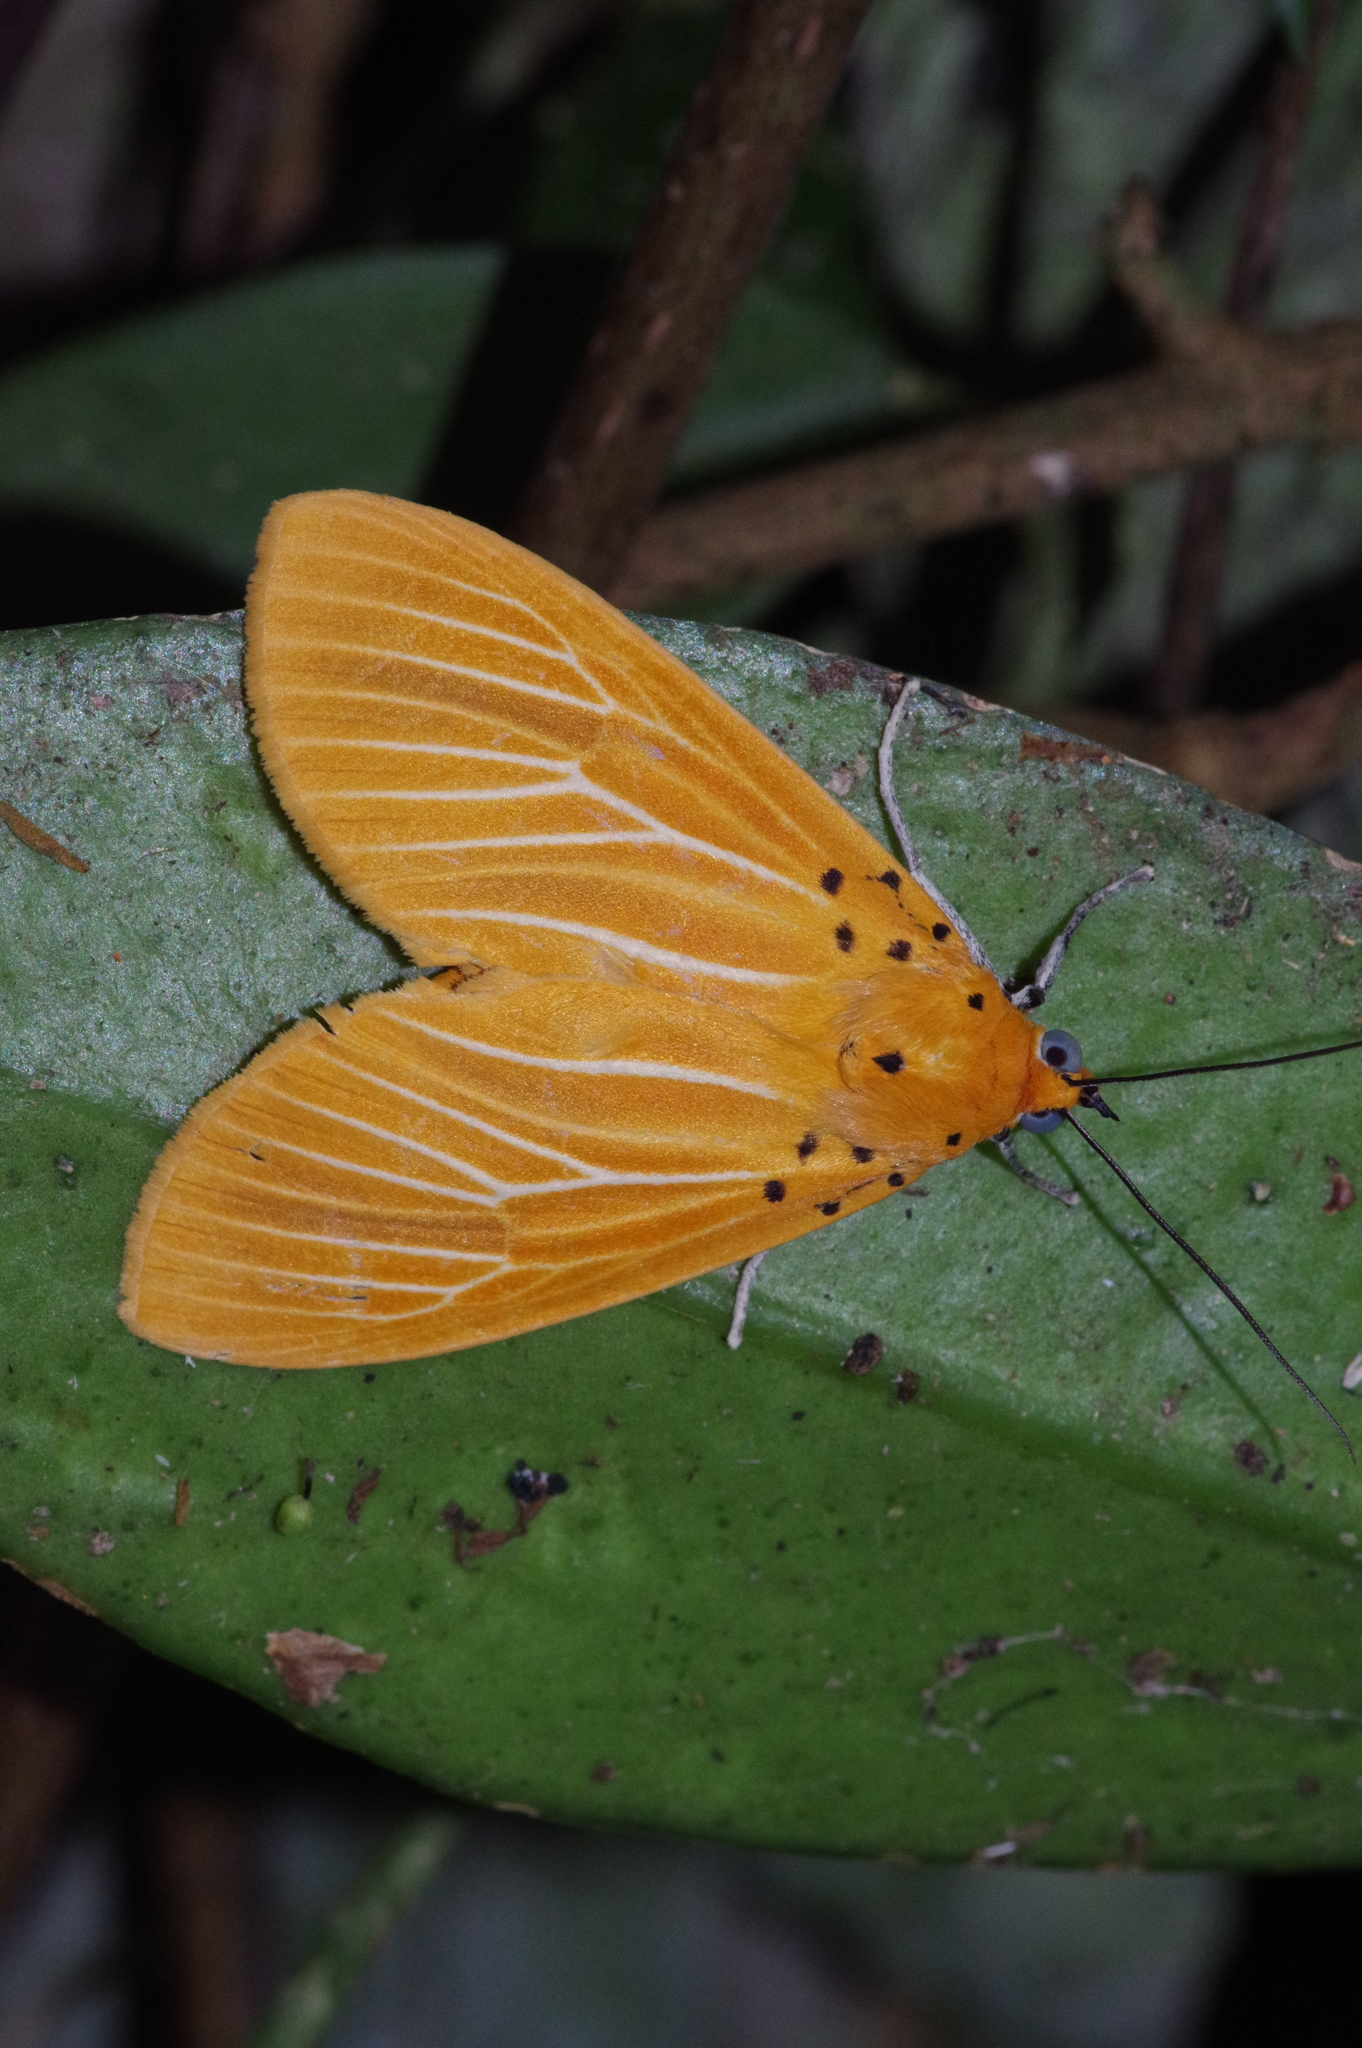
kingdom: Animalia
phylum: Arthropoda
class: Insecta
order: Lepidoptera
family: Erebidae
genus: Asota
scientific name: Asota egens
